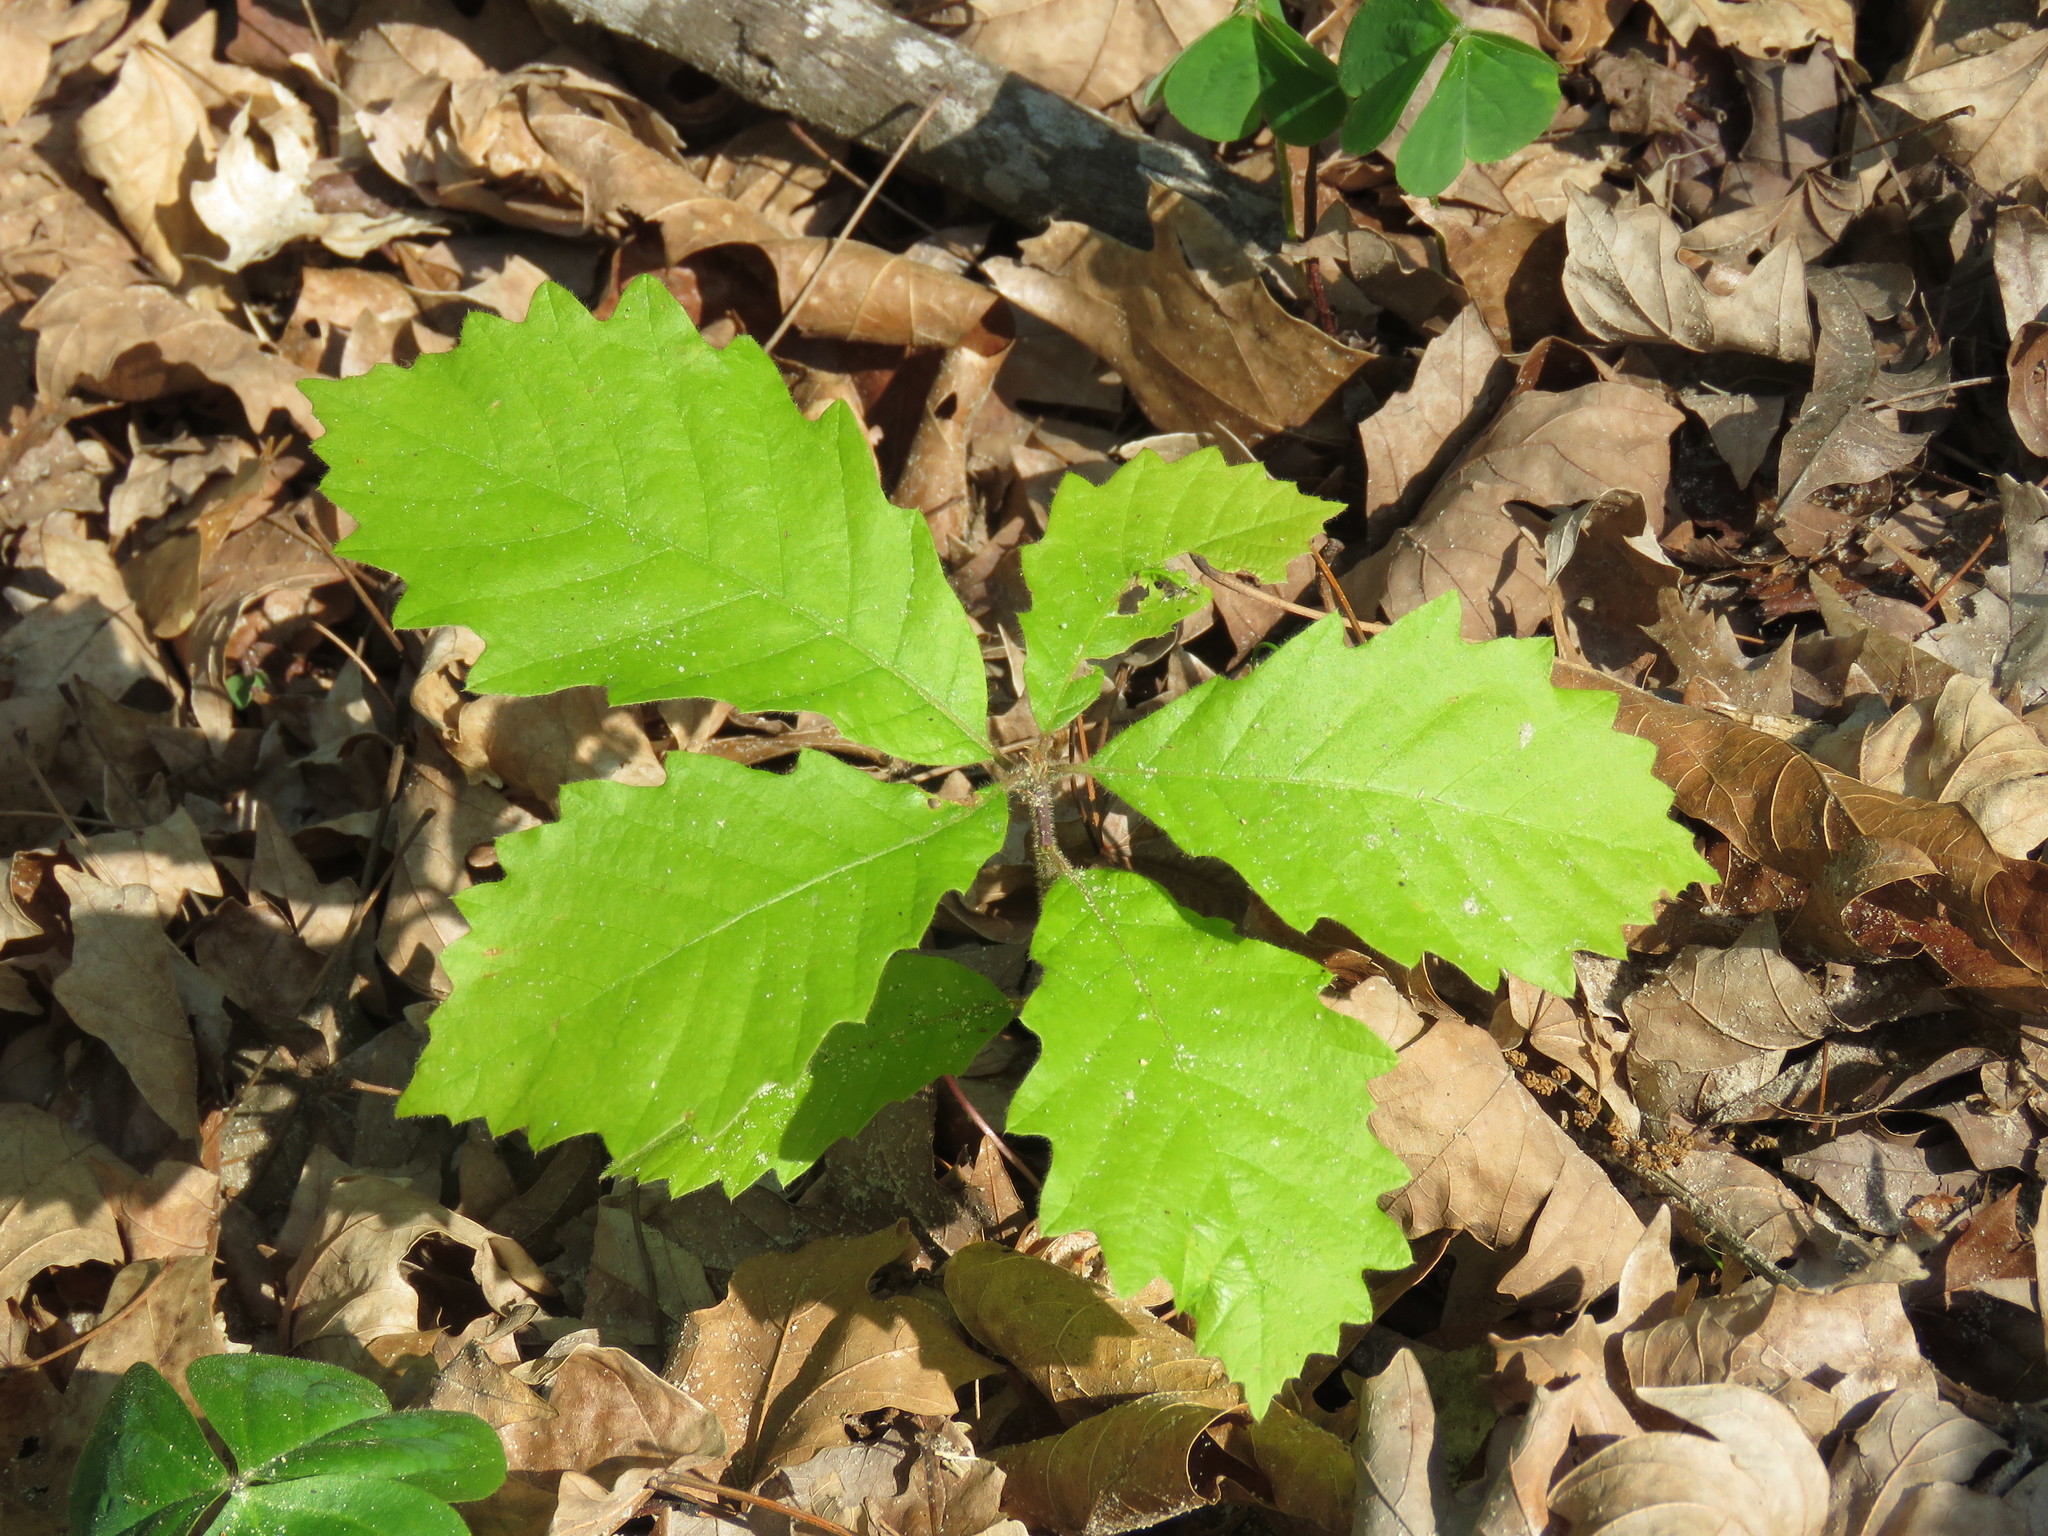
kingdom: Plantae
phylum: Tracheophyta
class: Magnoliopsida
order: Fagales
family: Fagaceae
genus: Quercus
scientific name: Quercus michauxii
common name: Swamp chestnut oak
